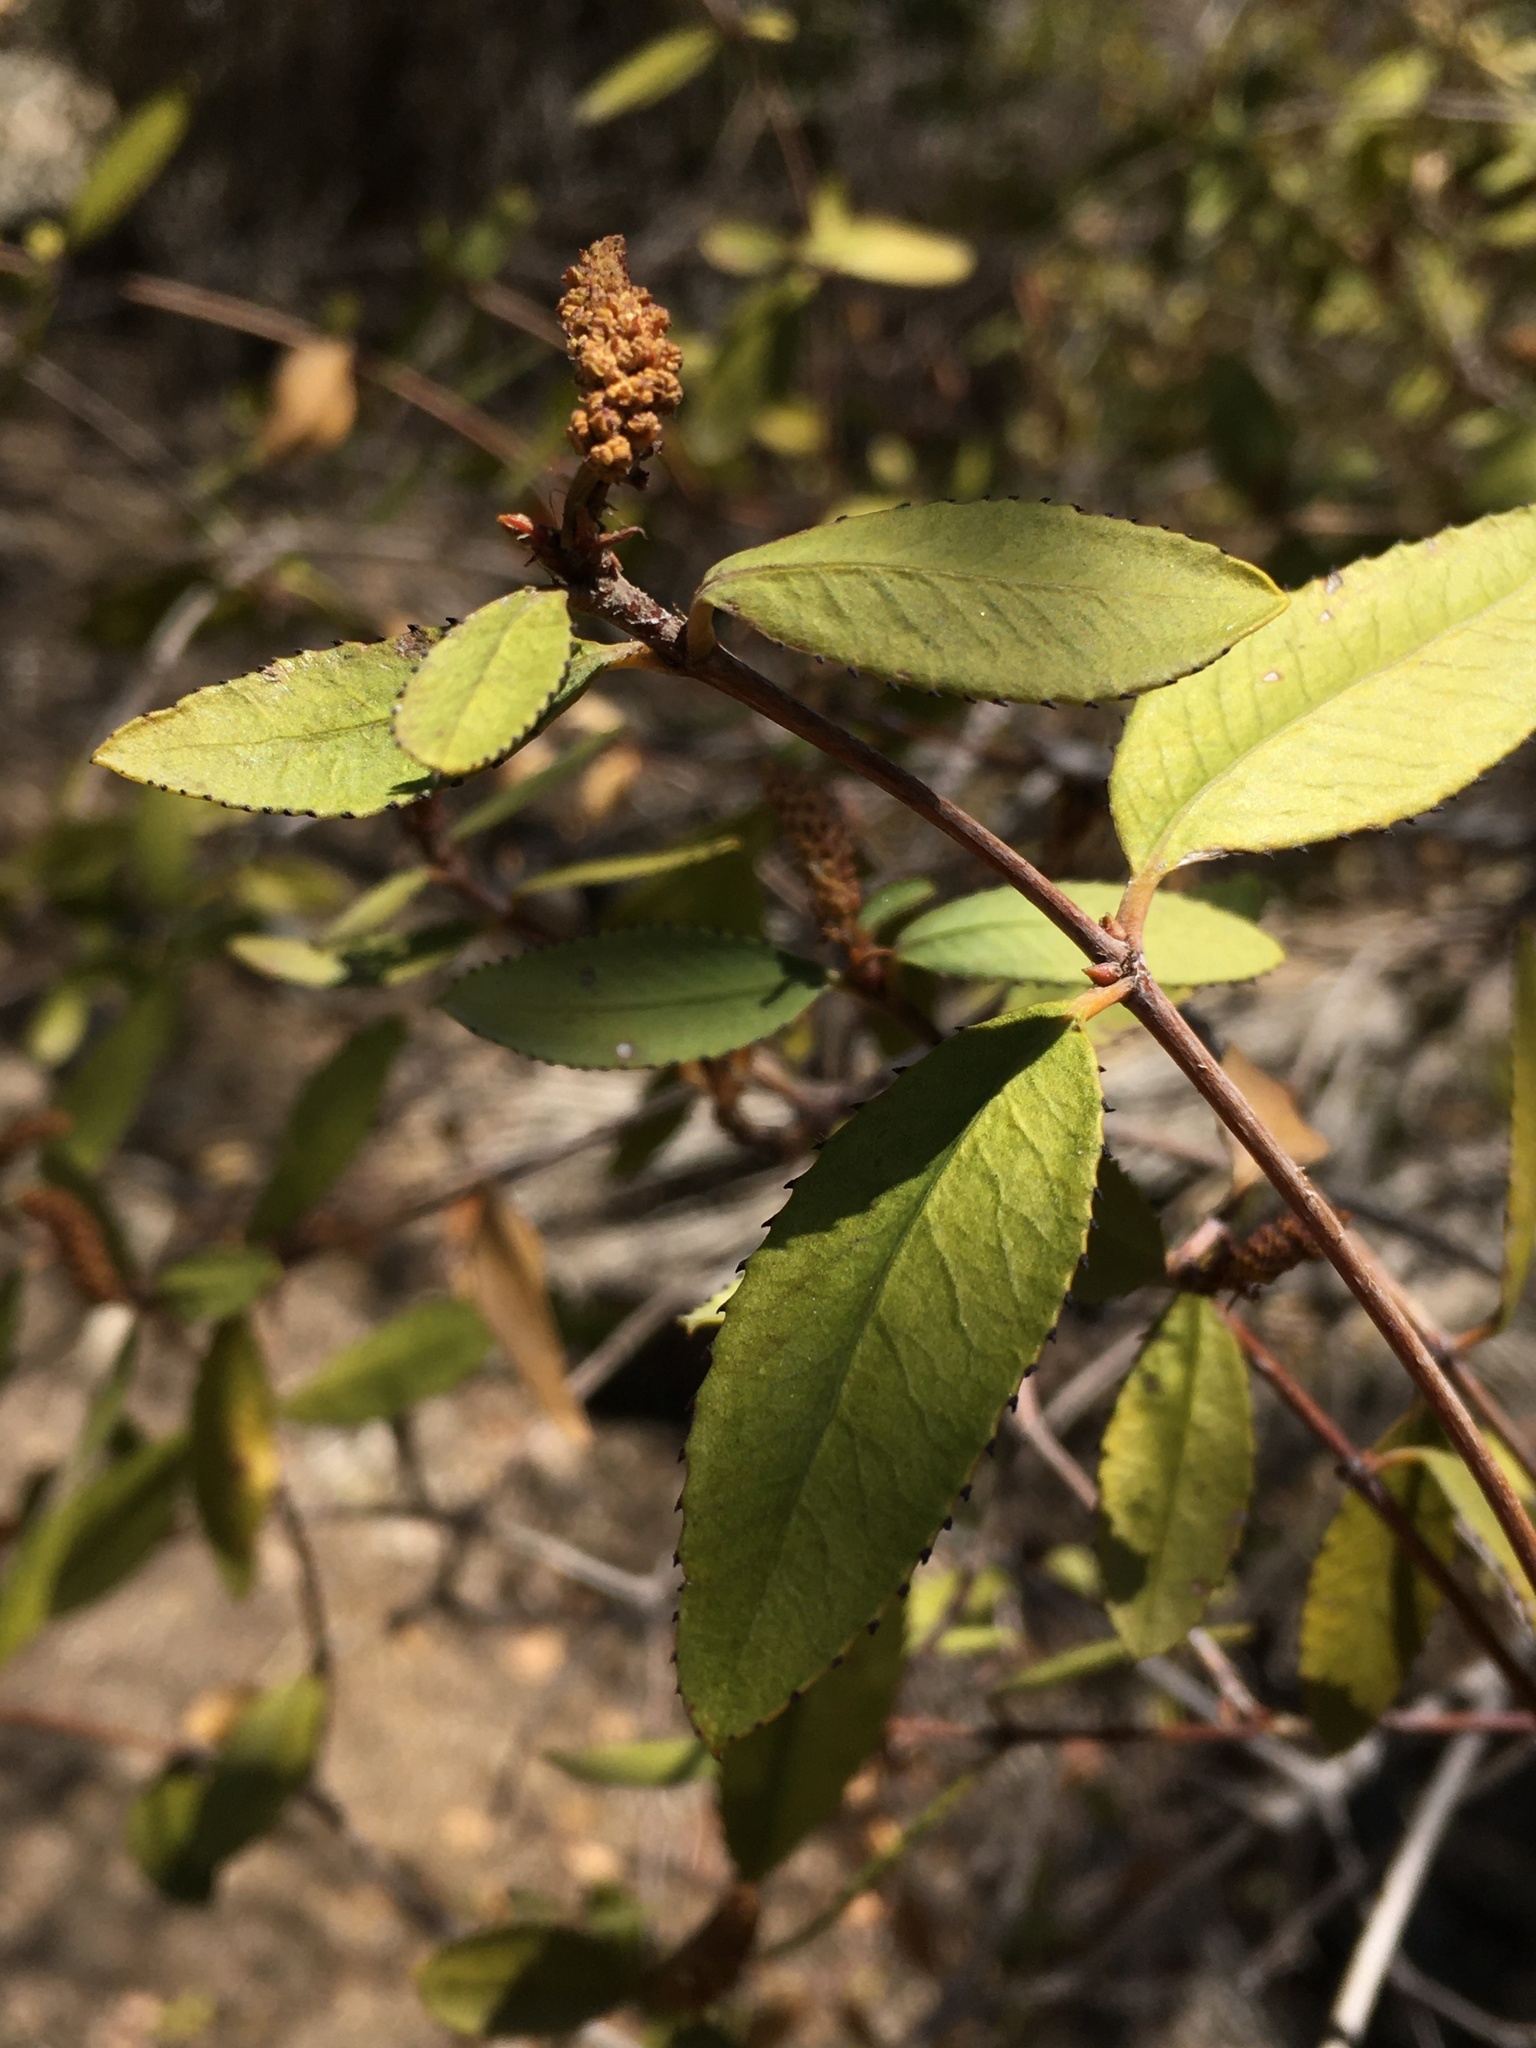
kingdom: Plantae
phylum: Tracheophyta
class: Magnoliopsida
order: Malpighiales
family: Euphorbiaceae
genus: Colliguaja
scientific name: Colliguaja odorifera
